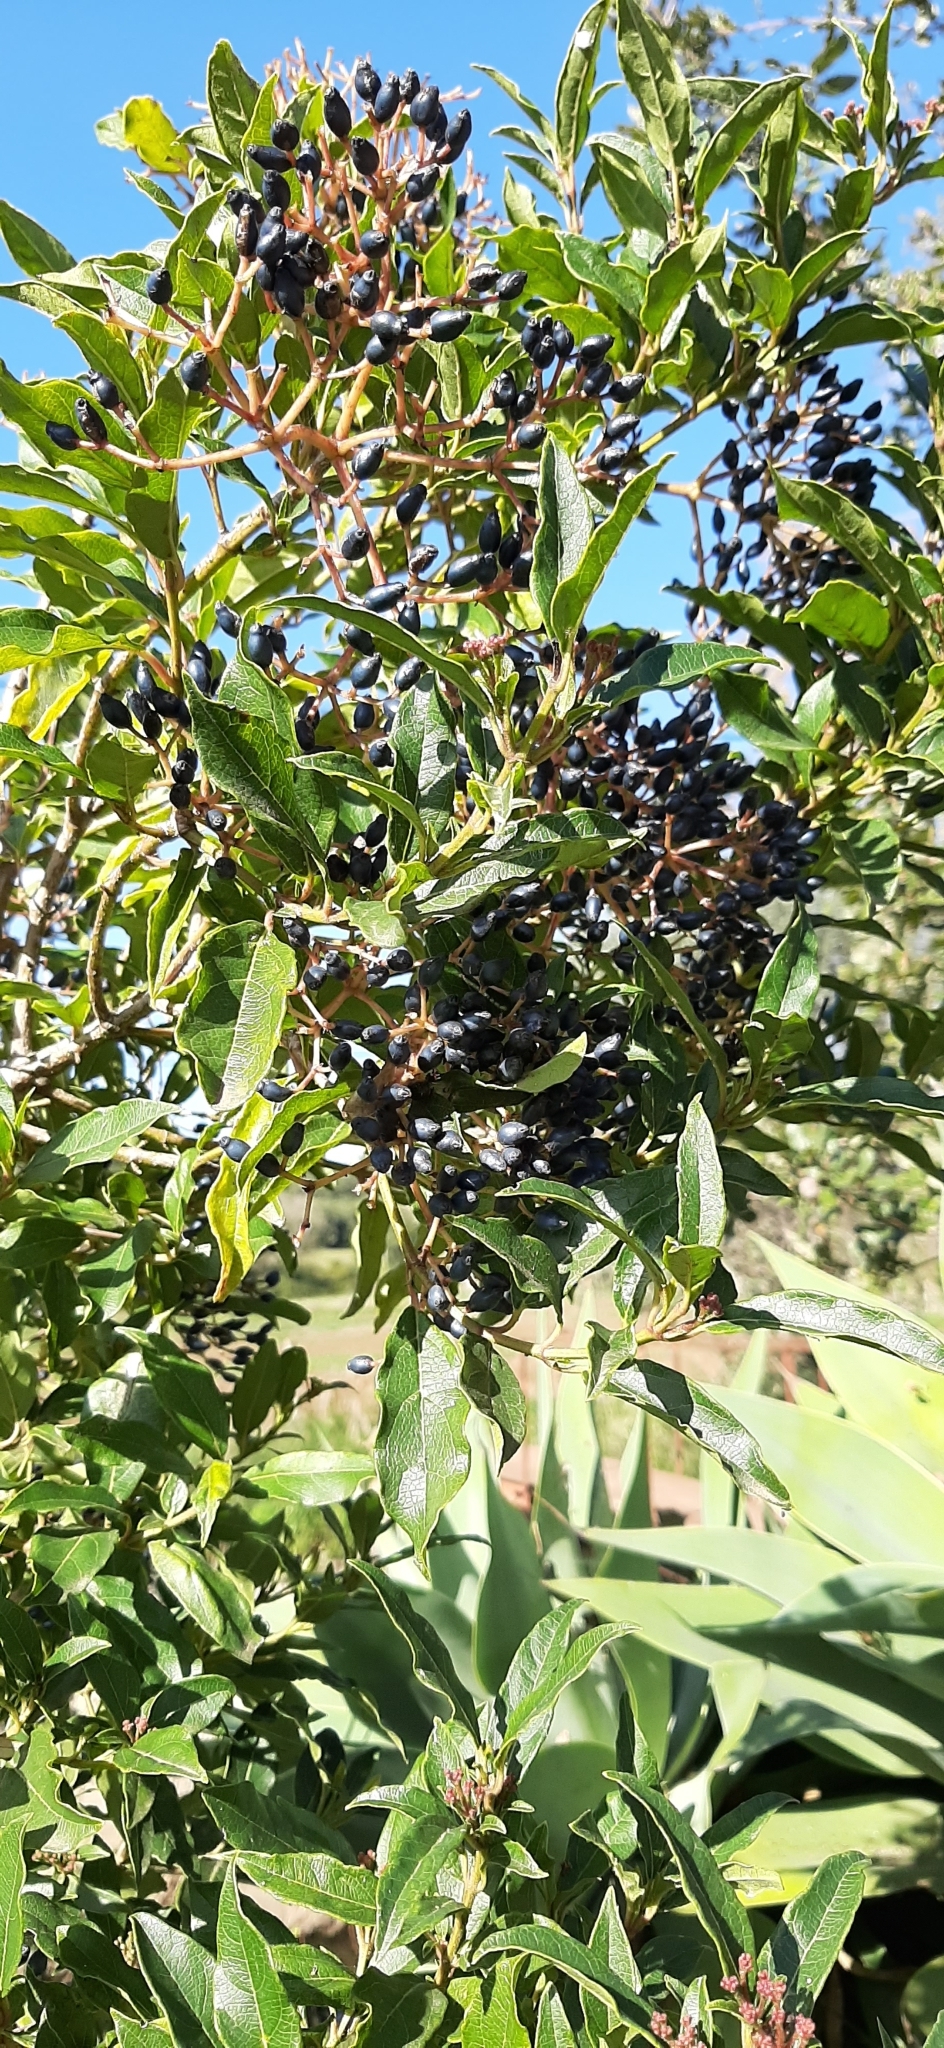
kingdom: Plantae
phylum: Tracheophyta
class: Magnoliopsida
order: Dipsacales
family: Viburnaceae
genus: Viburnum
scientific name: Viburnum tinus
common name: Laurustinus
